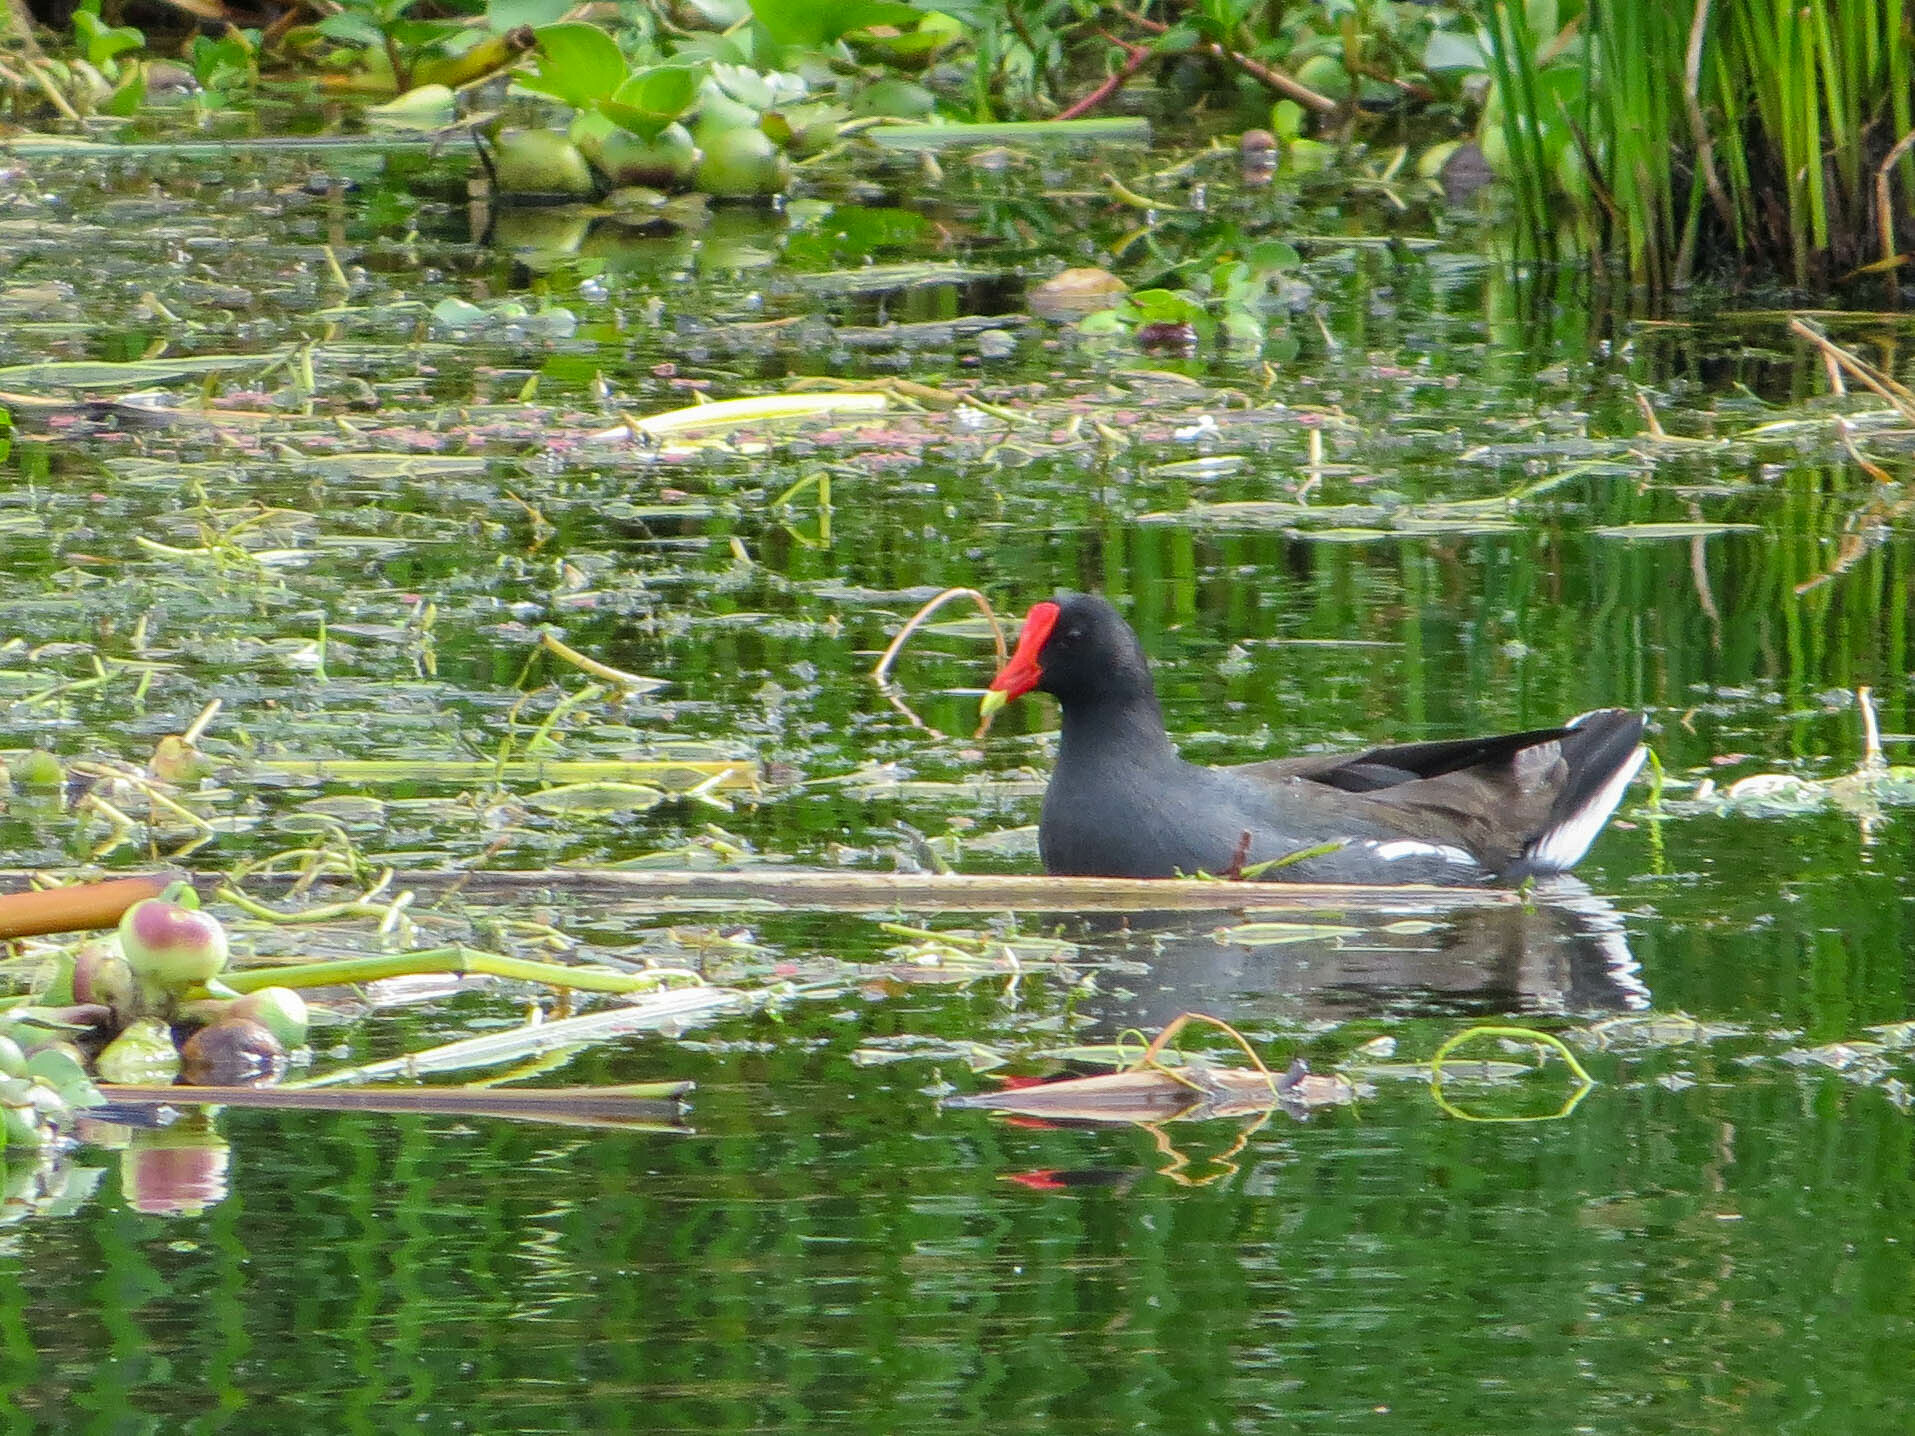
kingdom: Animalia
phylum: Chordata
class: Aves
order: Gruiformes
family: Rallidae
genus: Gallinula
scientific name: Gallinula chloropus
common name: Common moorhen
